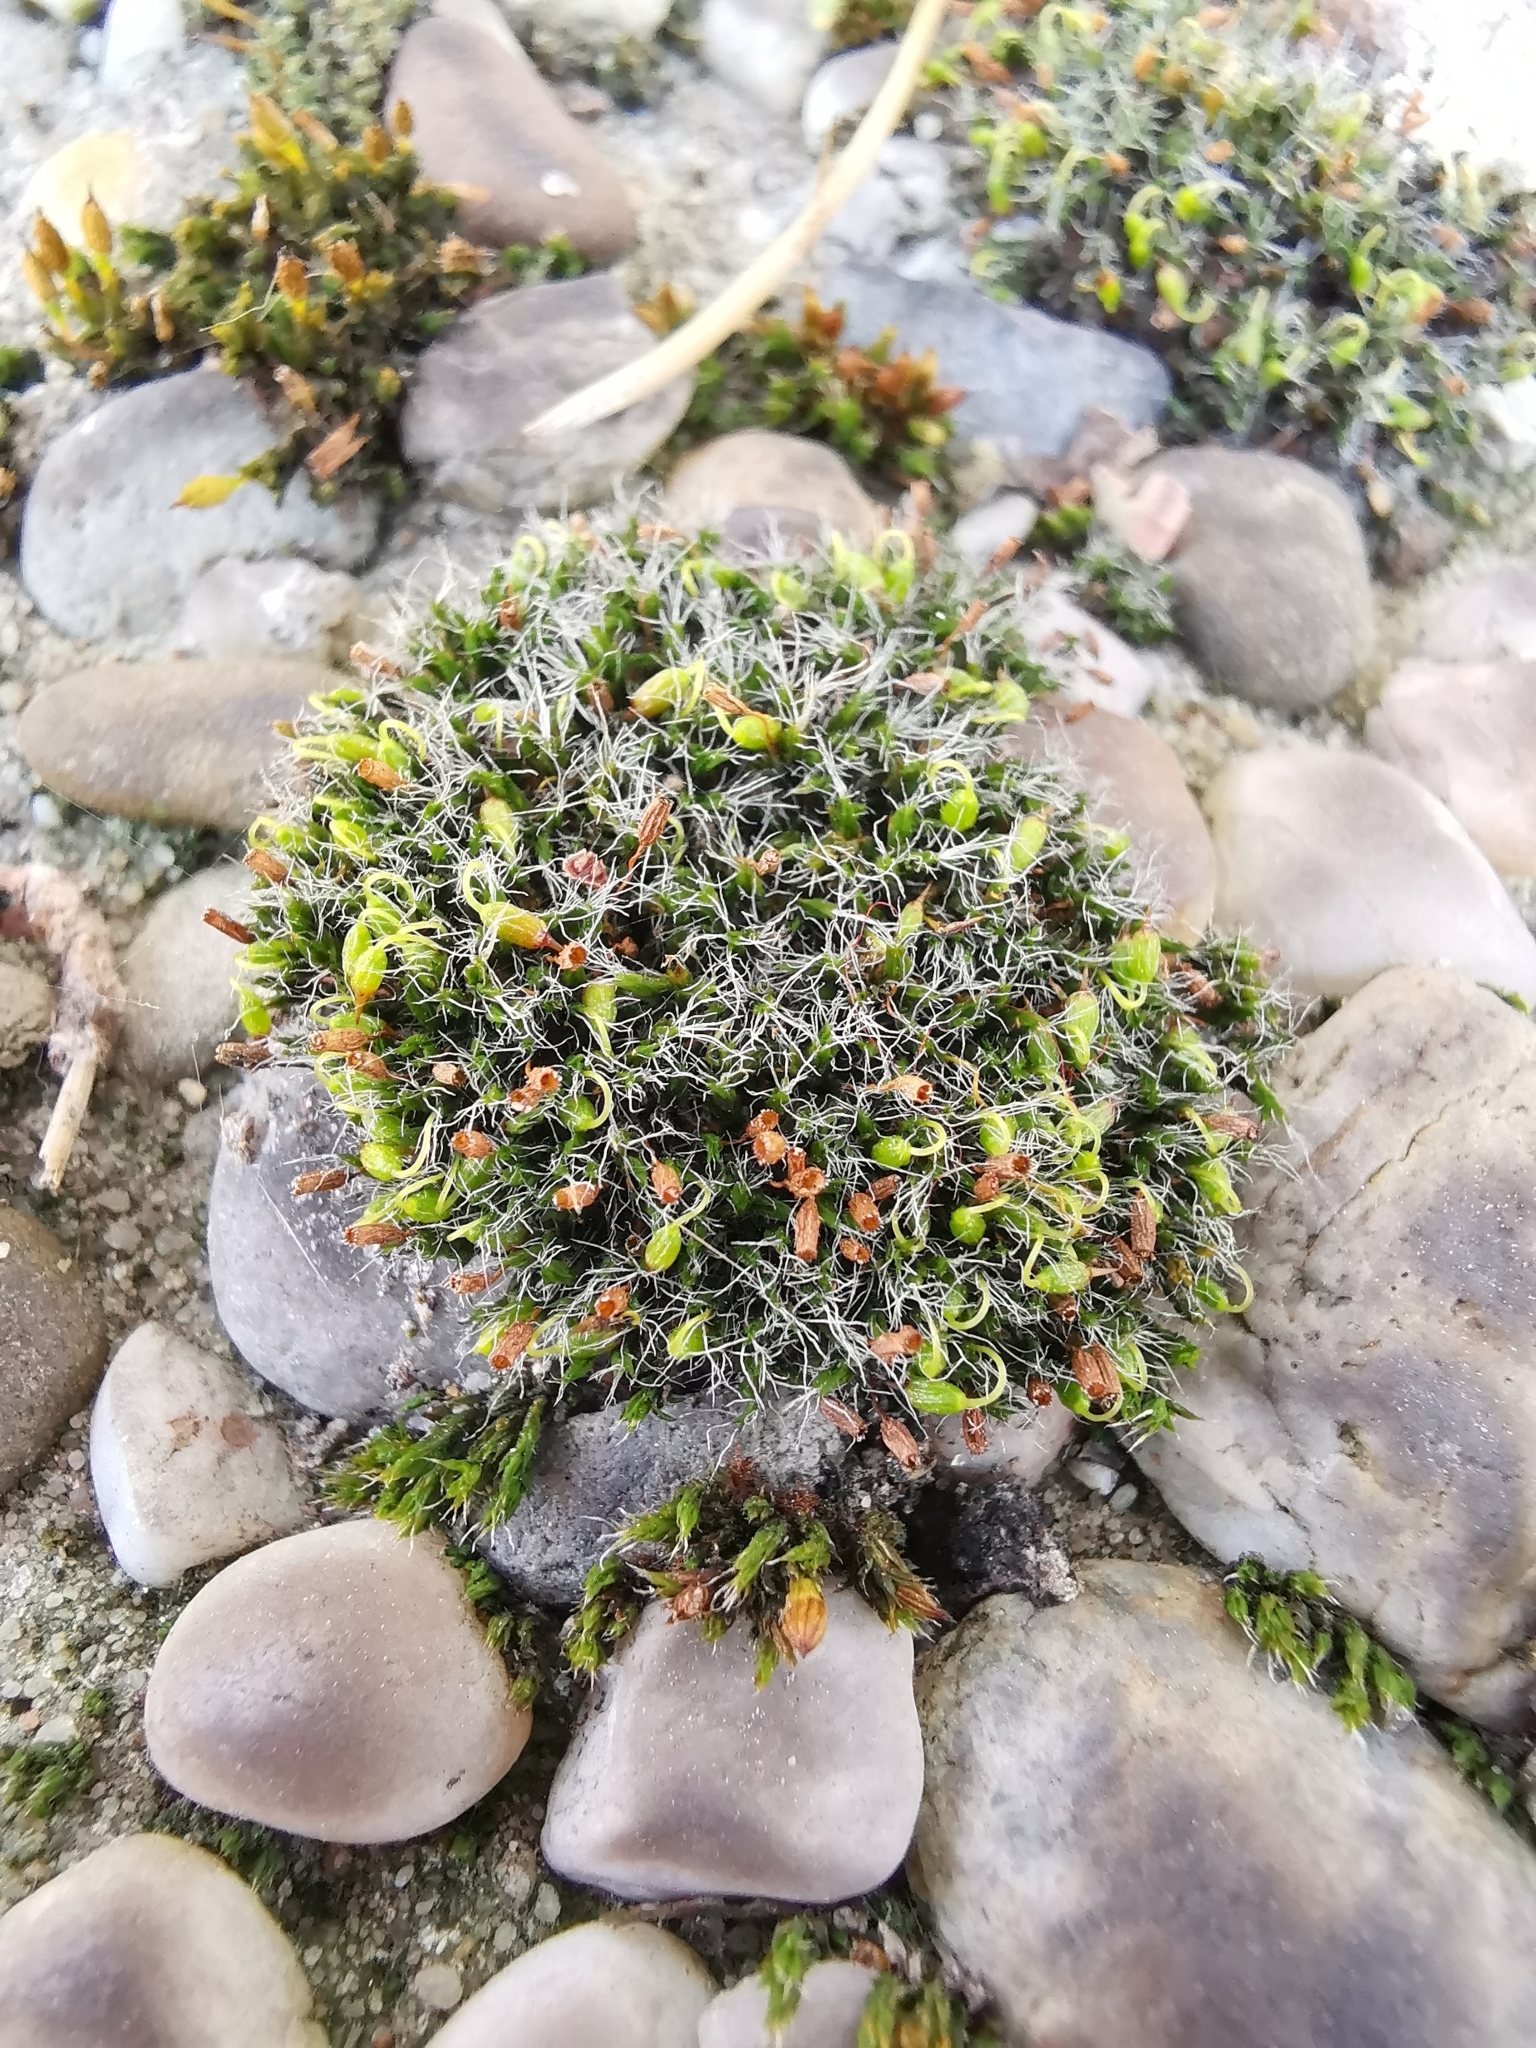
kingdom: Plantae
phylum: Bryophyta
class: Bryopsida
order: Grimmiales
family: Grimmiaceae
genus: Grimmia
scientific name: Grimmia pulvinata
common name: Grey-cushioned grimmia
